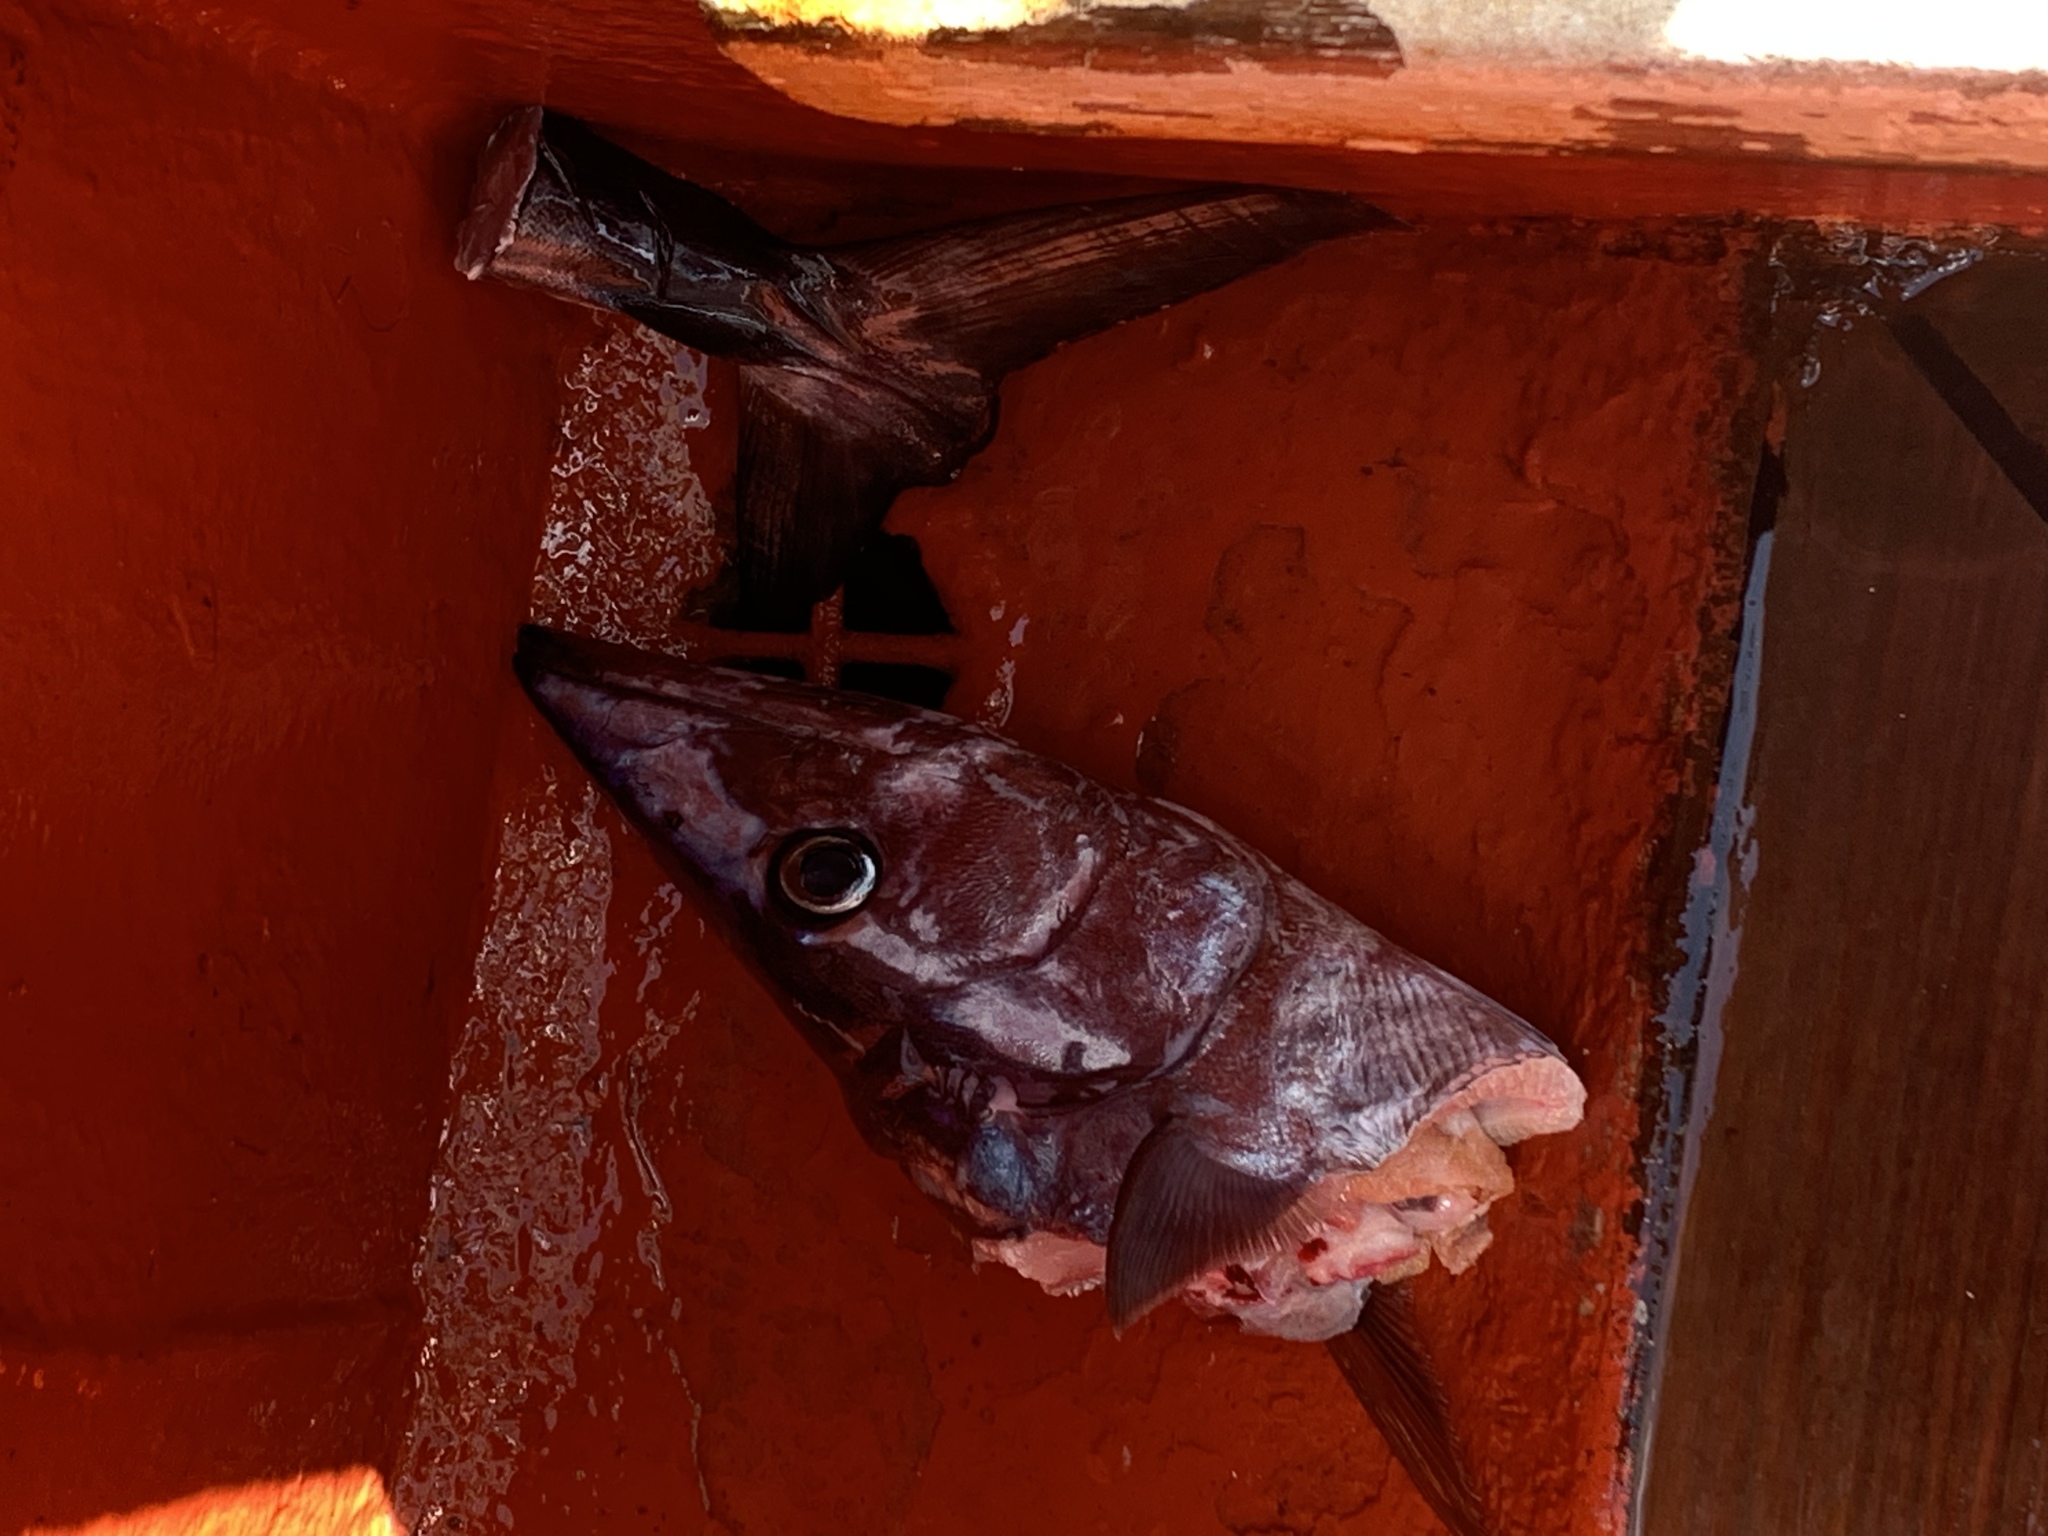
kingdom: Animalia
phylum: Chordata
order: Perciformes
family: Scombridae
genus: Acanthocybium
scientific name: Acanthocybium solandri
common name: Wahoo
